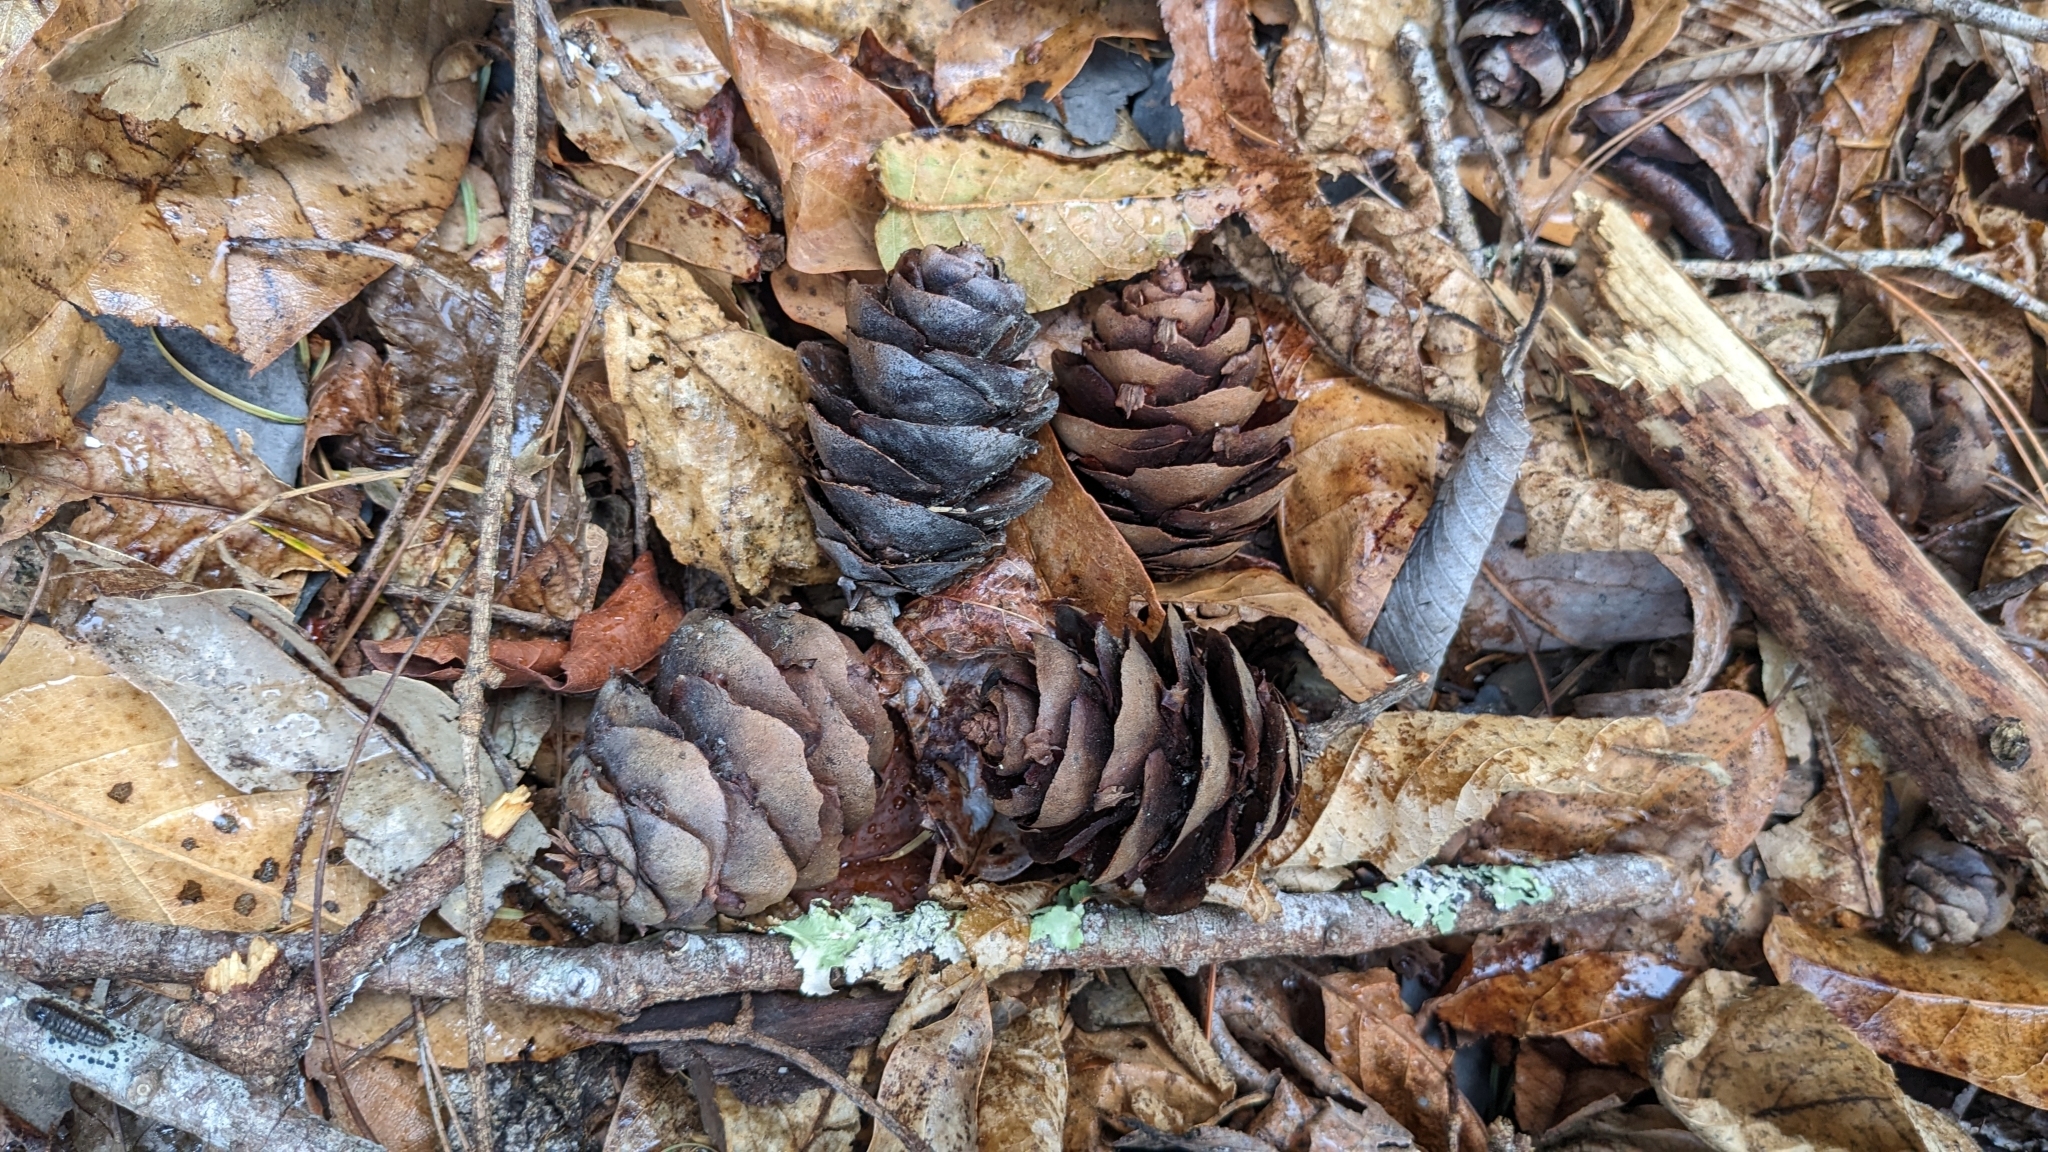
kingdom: Plantae
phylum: Tracheophyta
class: Pinopsida
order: Pinales
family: Pinaceae
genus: Pseudotsuga
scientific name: Pseudotsuga sinensis
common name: Chinese douglas-fir
